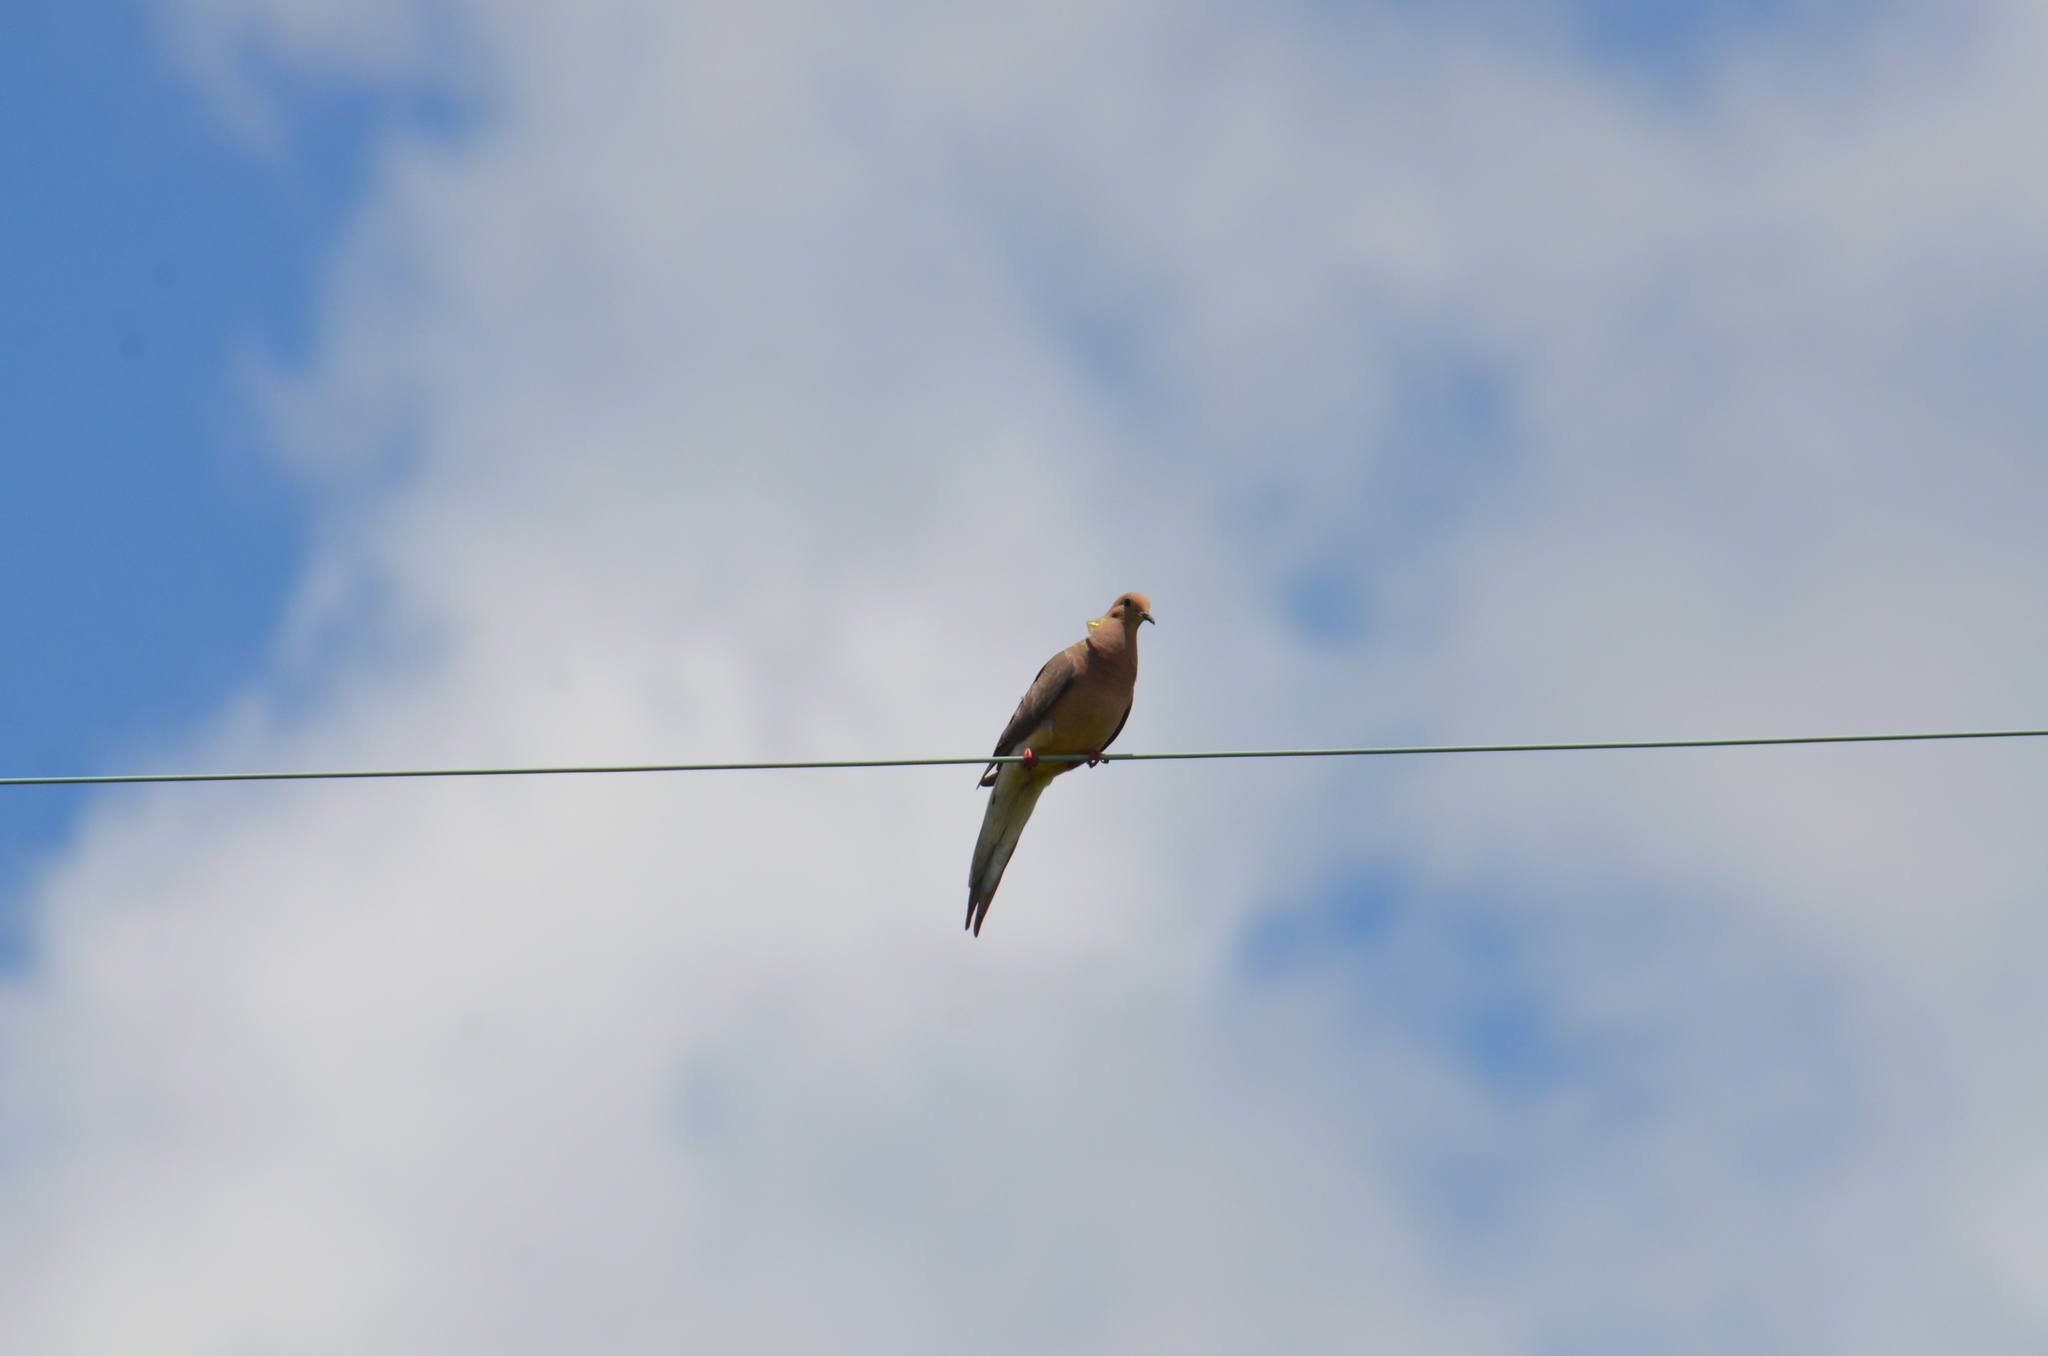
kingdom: Animalia
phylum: Chordata
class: Aves
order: Columbiformes
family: Columbidae
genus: Zenaida
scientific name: Zenaida macroura
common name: Mourning dove
